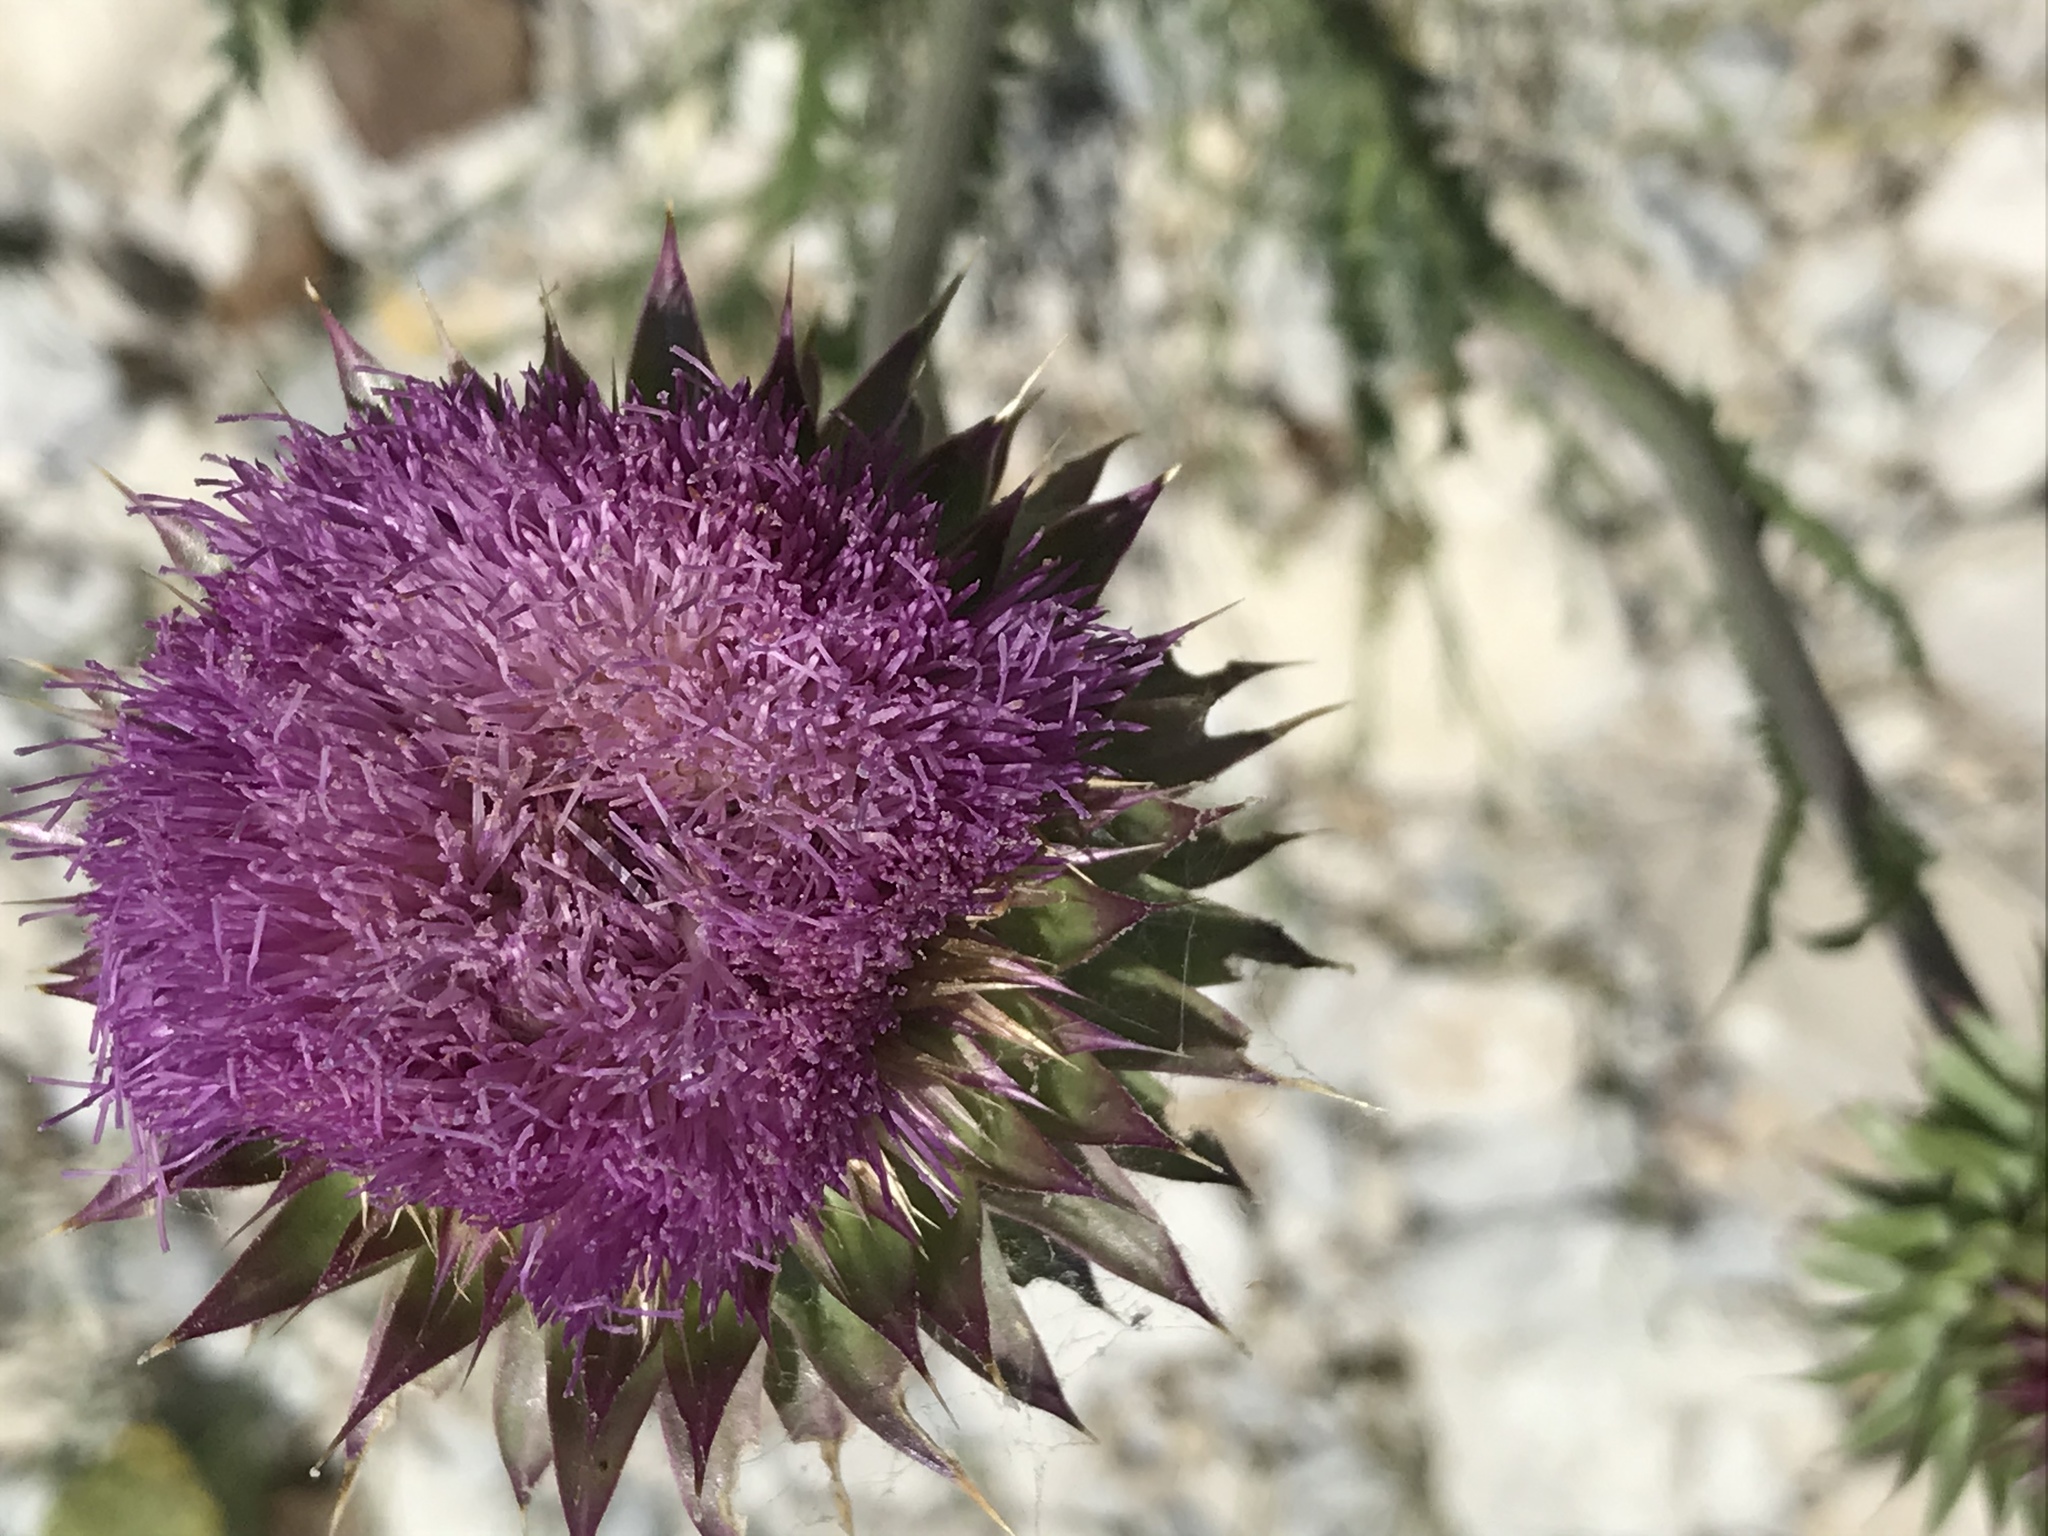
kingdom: Plantae
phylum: Tracheophyta
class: Magnoliopsida
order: Asterales
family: Asteraceae
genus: Carduus
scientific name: Carduus nutans
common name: Musk thistle
